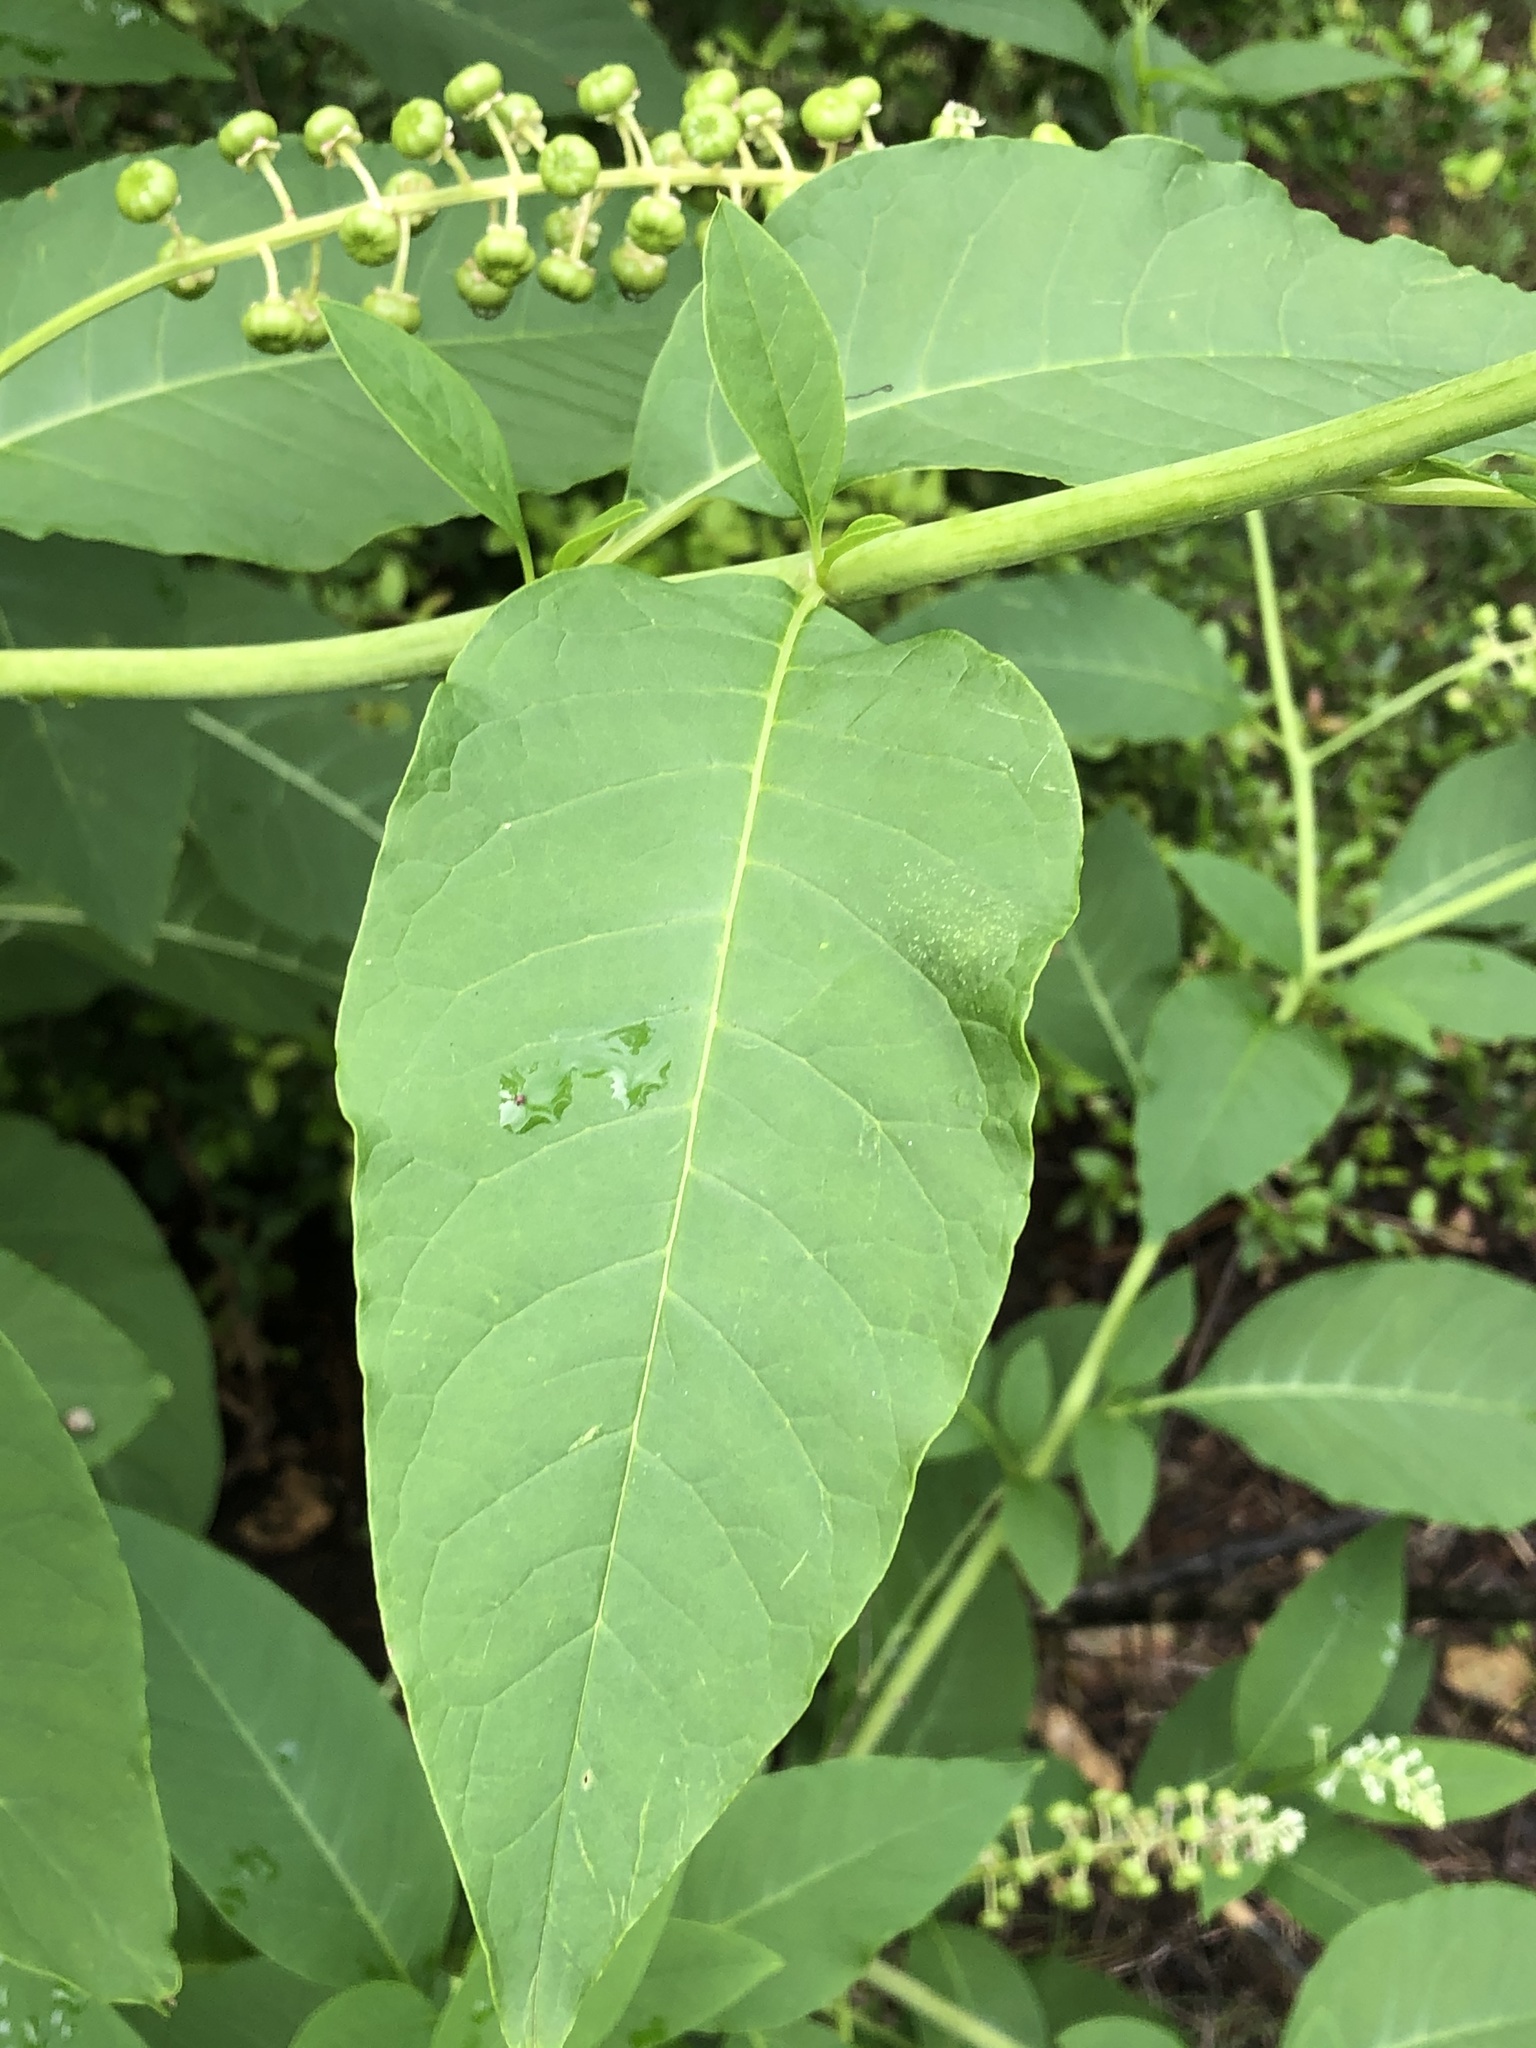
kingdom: Plantae
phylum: Tracheophyta
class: Magnoliopsida
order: Caryophyllales
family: Phytolaccaceae
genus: Phytolacca
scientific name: Phytolacca americana
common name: American pokeweed
